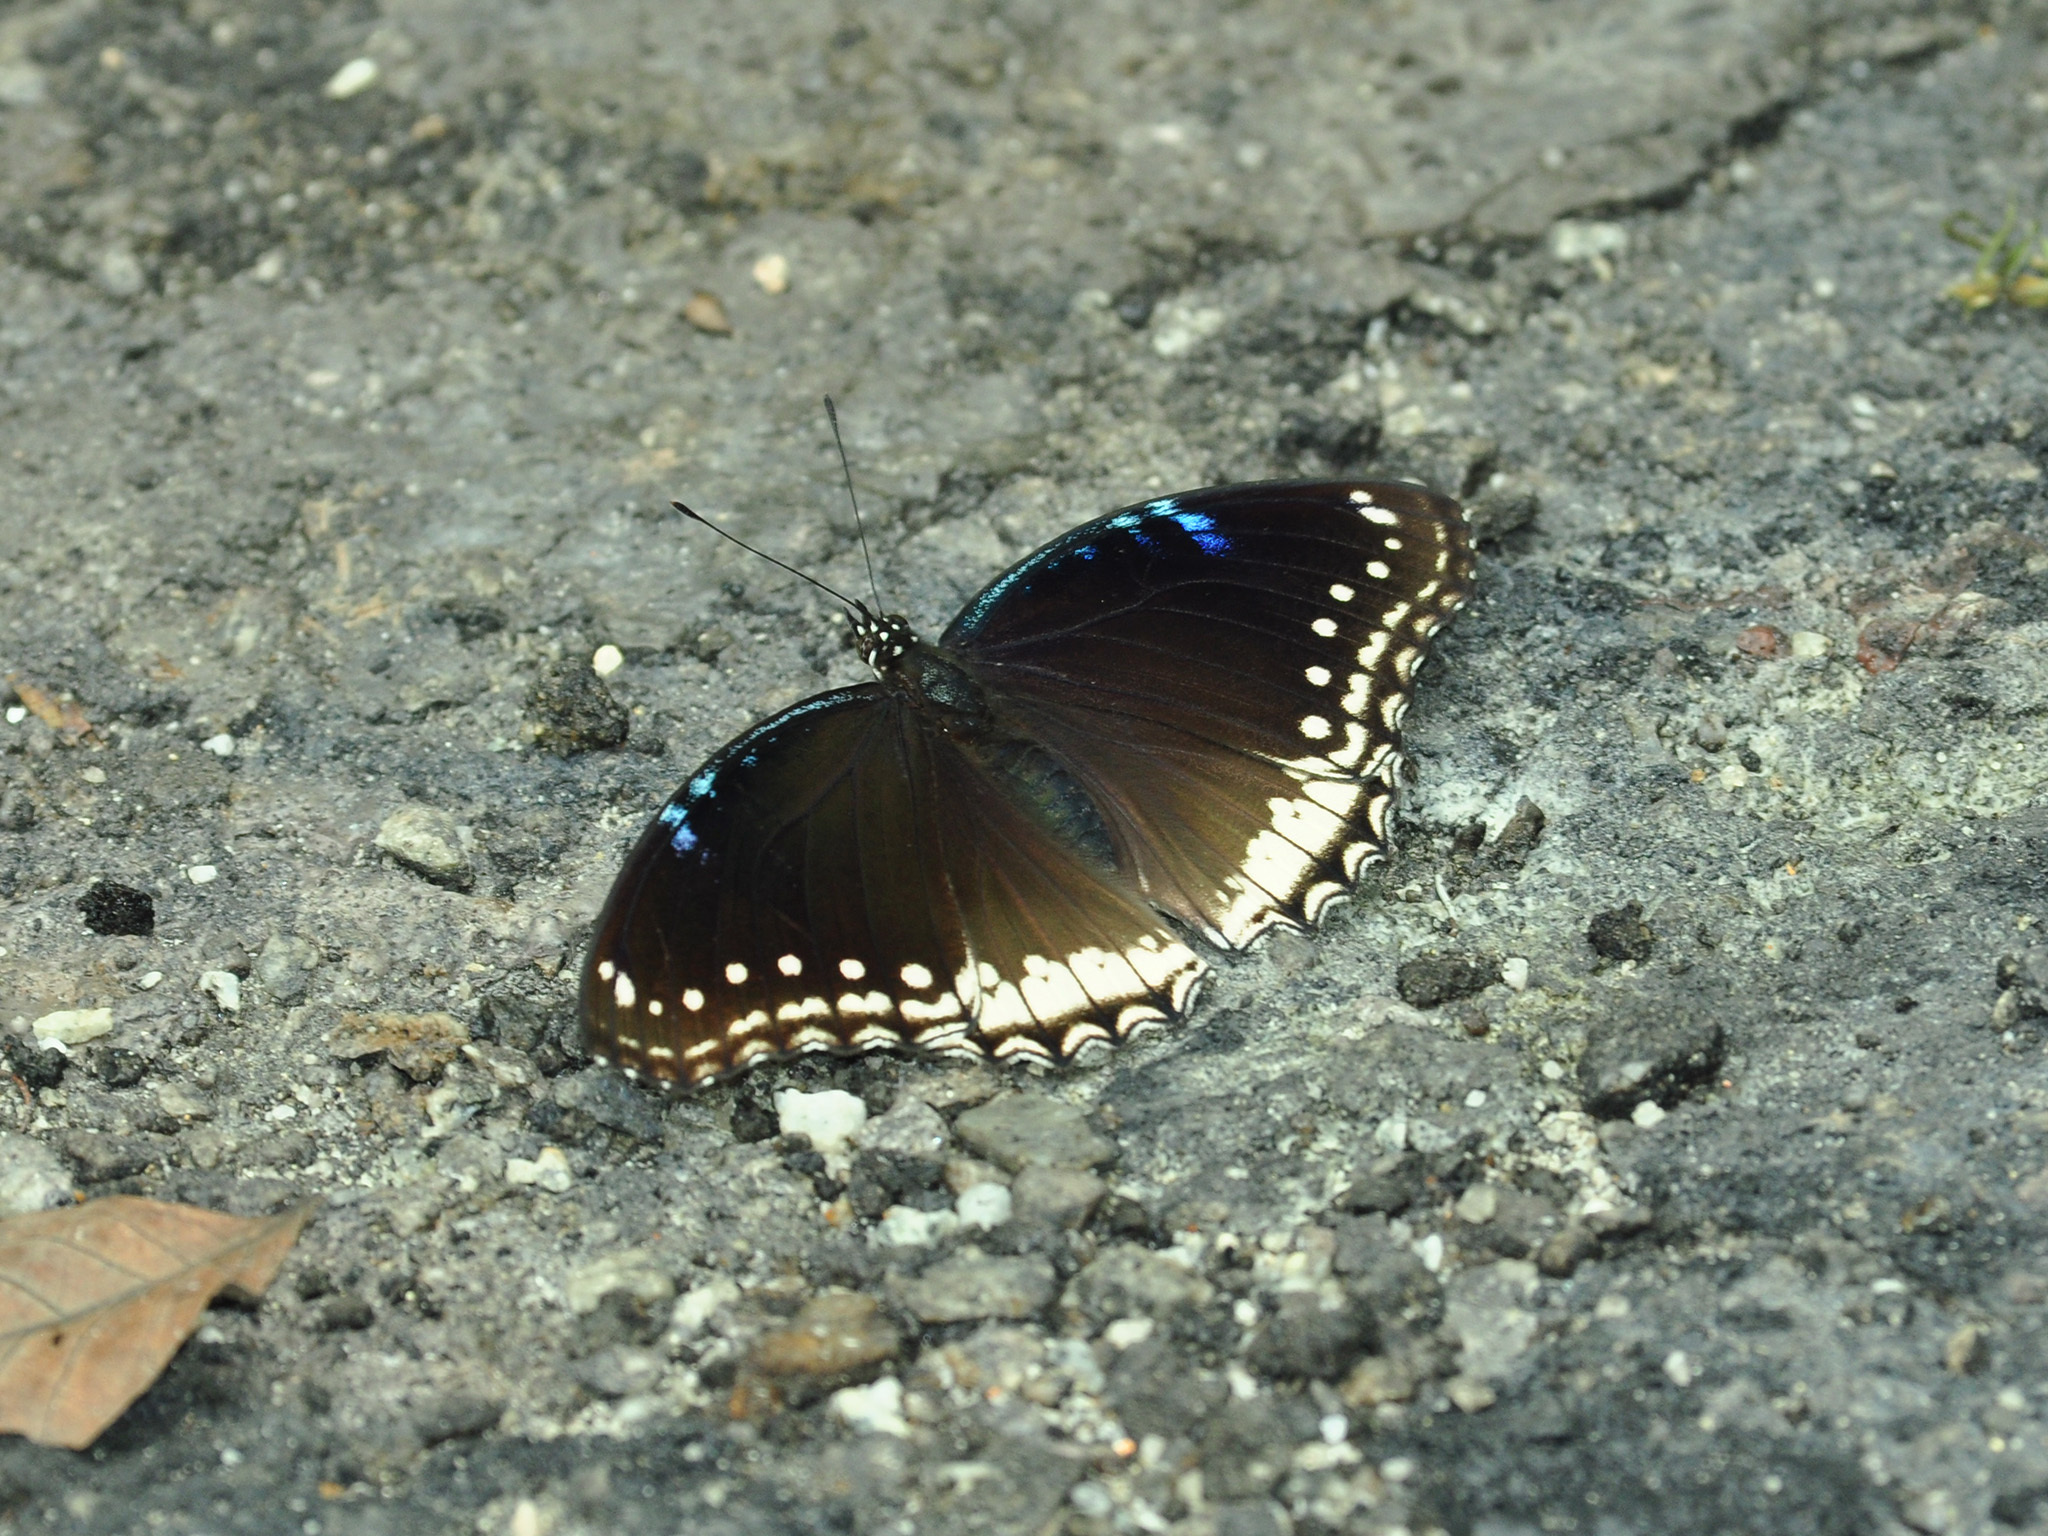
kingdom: Animalia
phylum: Arthropoda
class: Insecta
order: Lepidoptera
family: Nymphalidae
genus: Hypolimnas
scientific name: Hypolimnas bolina
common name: Great eggfly
